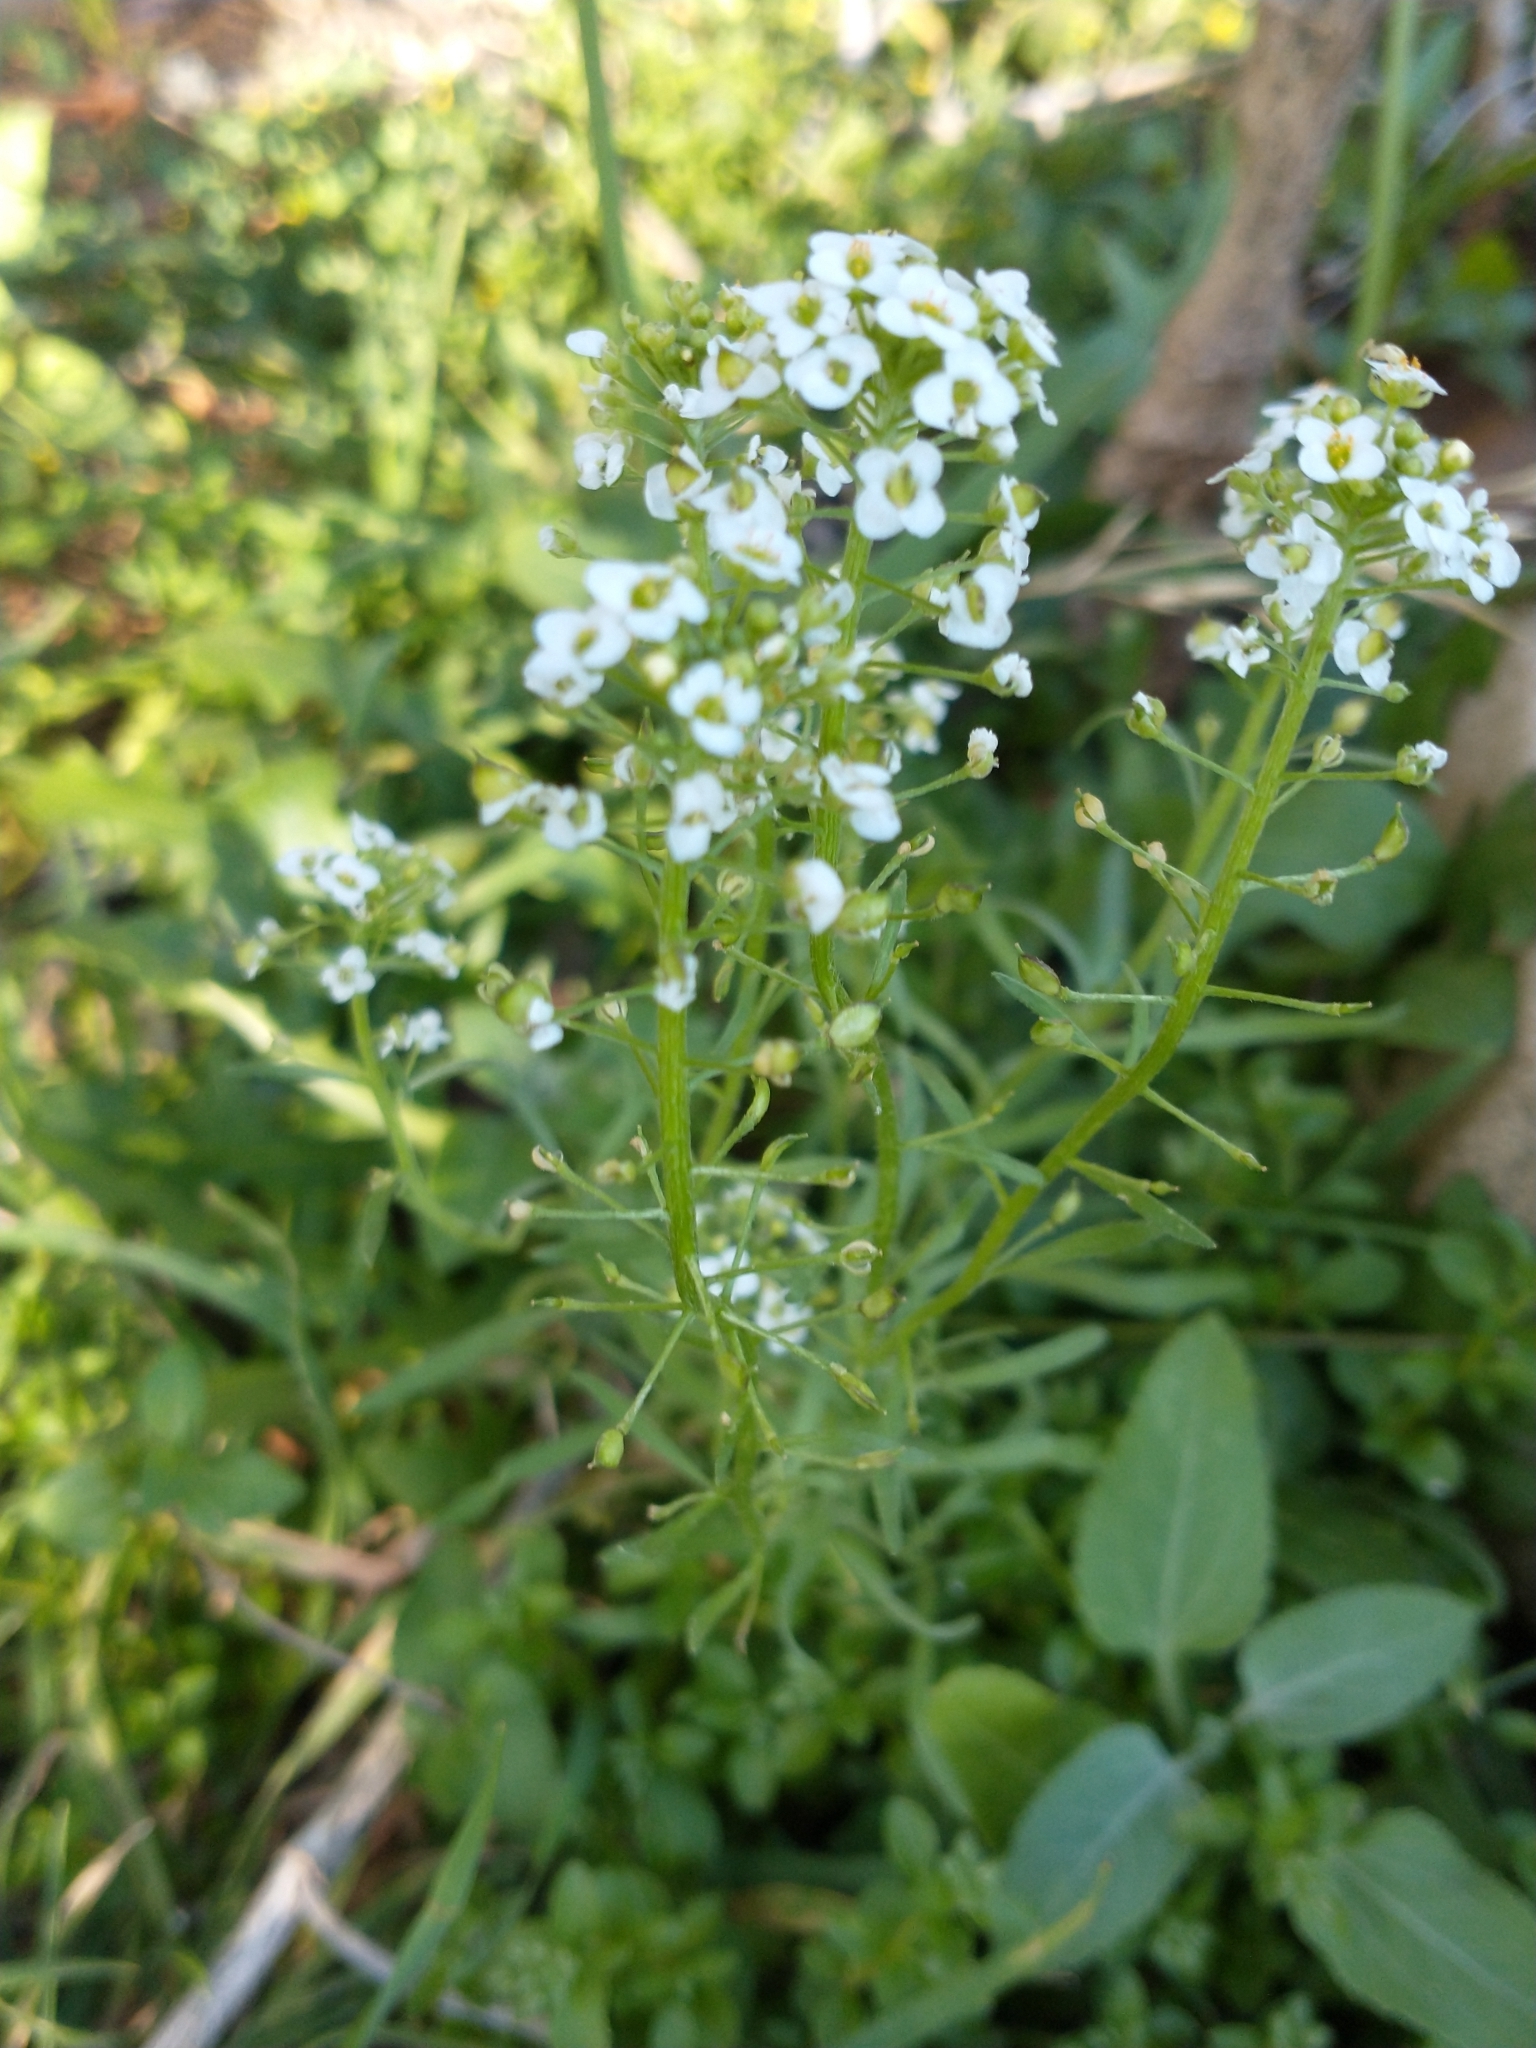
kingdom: Plantae
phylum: Tracheophyta
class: Magnoliopsida
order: Brassicales
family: Brassicaceae
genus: Lobularia
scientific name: Lobularia maritima
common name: Sweet alison
